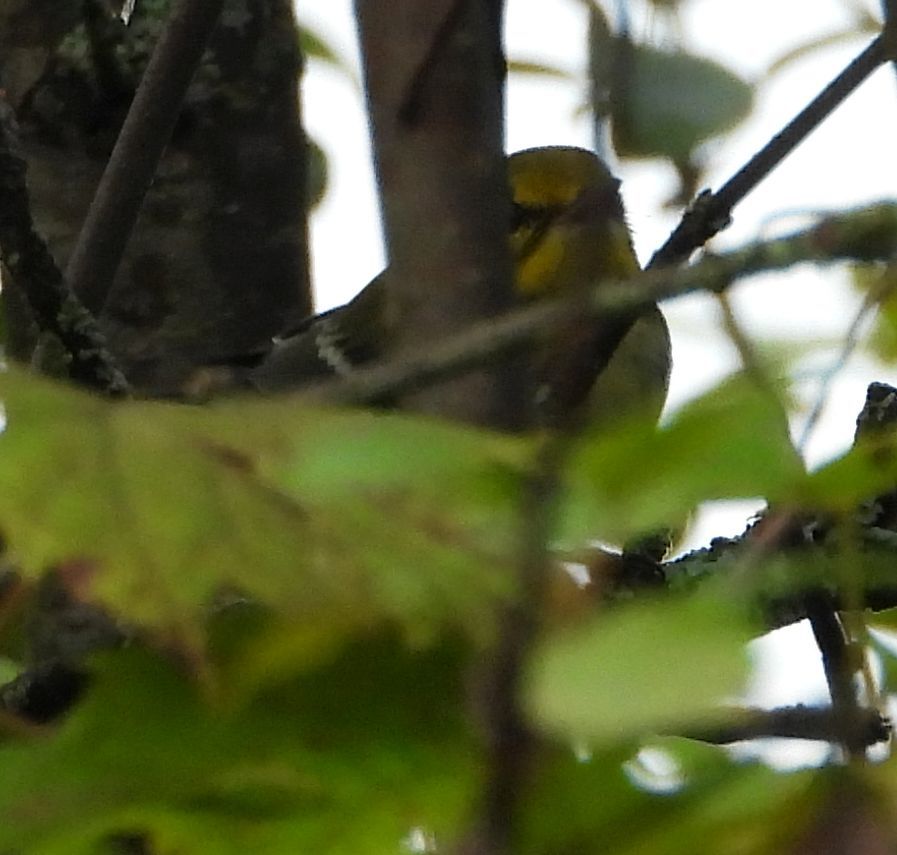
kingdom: Animalia
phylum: Chordata
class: Aves
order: Passeriformes
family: Parulidae
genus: Setophaga
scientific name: Setophaga virens
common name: Black-throated green warbler
